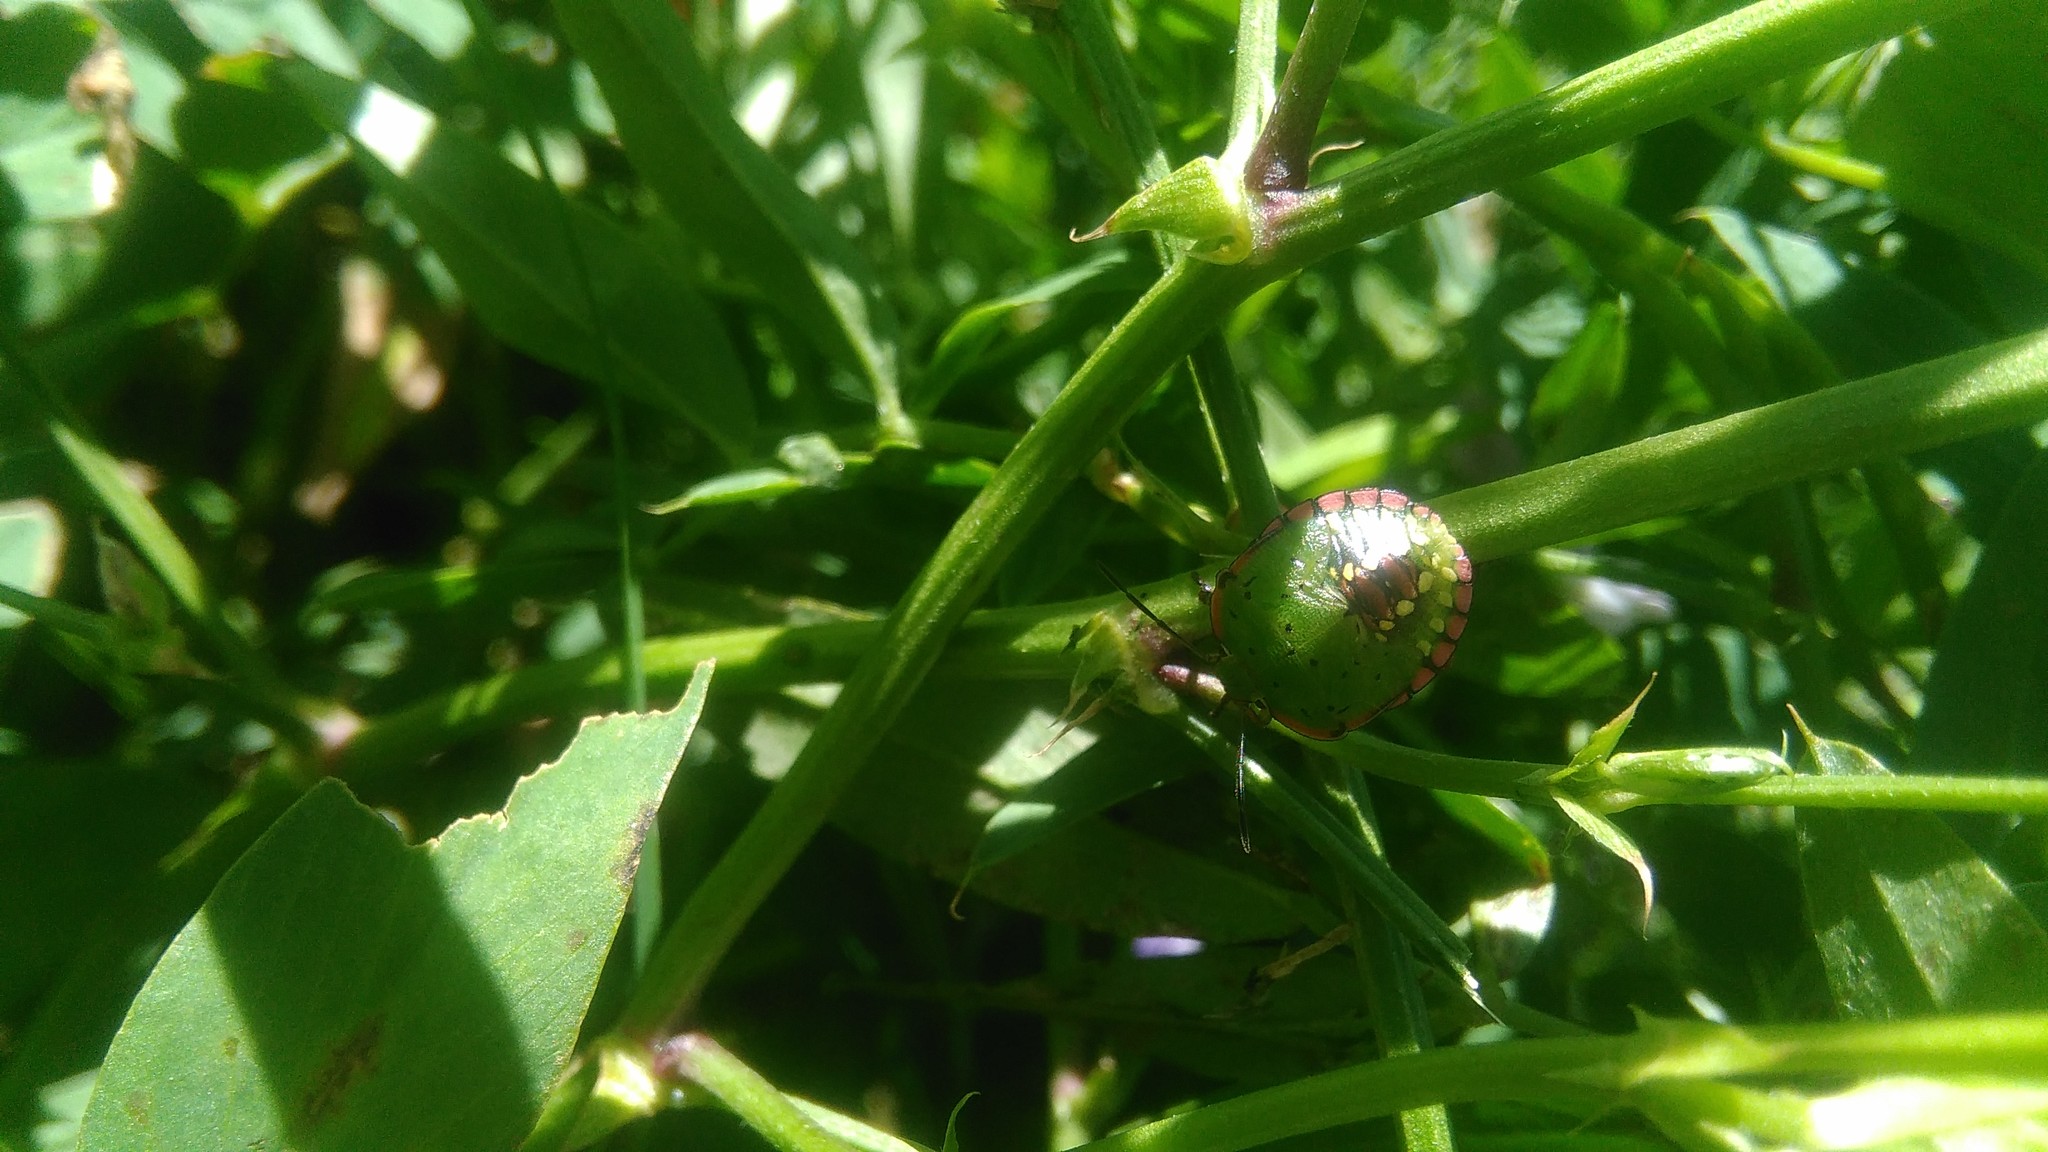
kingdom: Animalia
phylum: Arthropoda
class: Insecta
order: Hemiptera
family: Pentatomidae
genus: Nezara
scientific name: Nezara viridula
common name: Southern green stink bug
